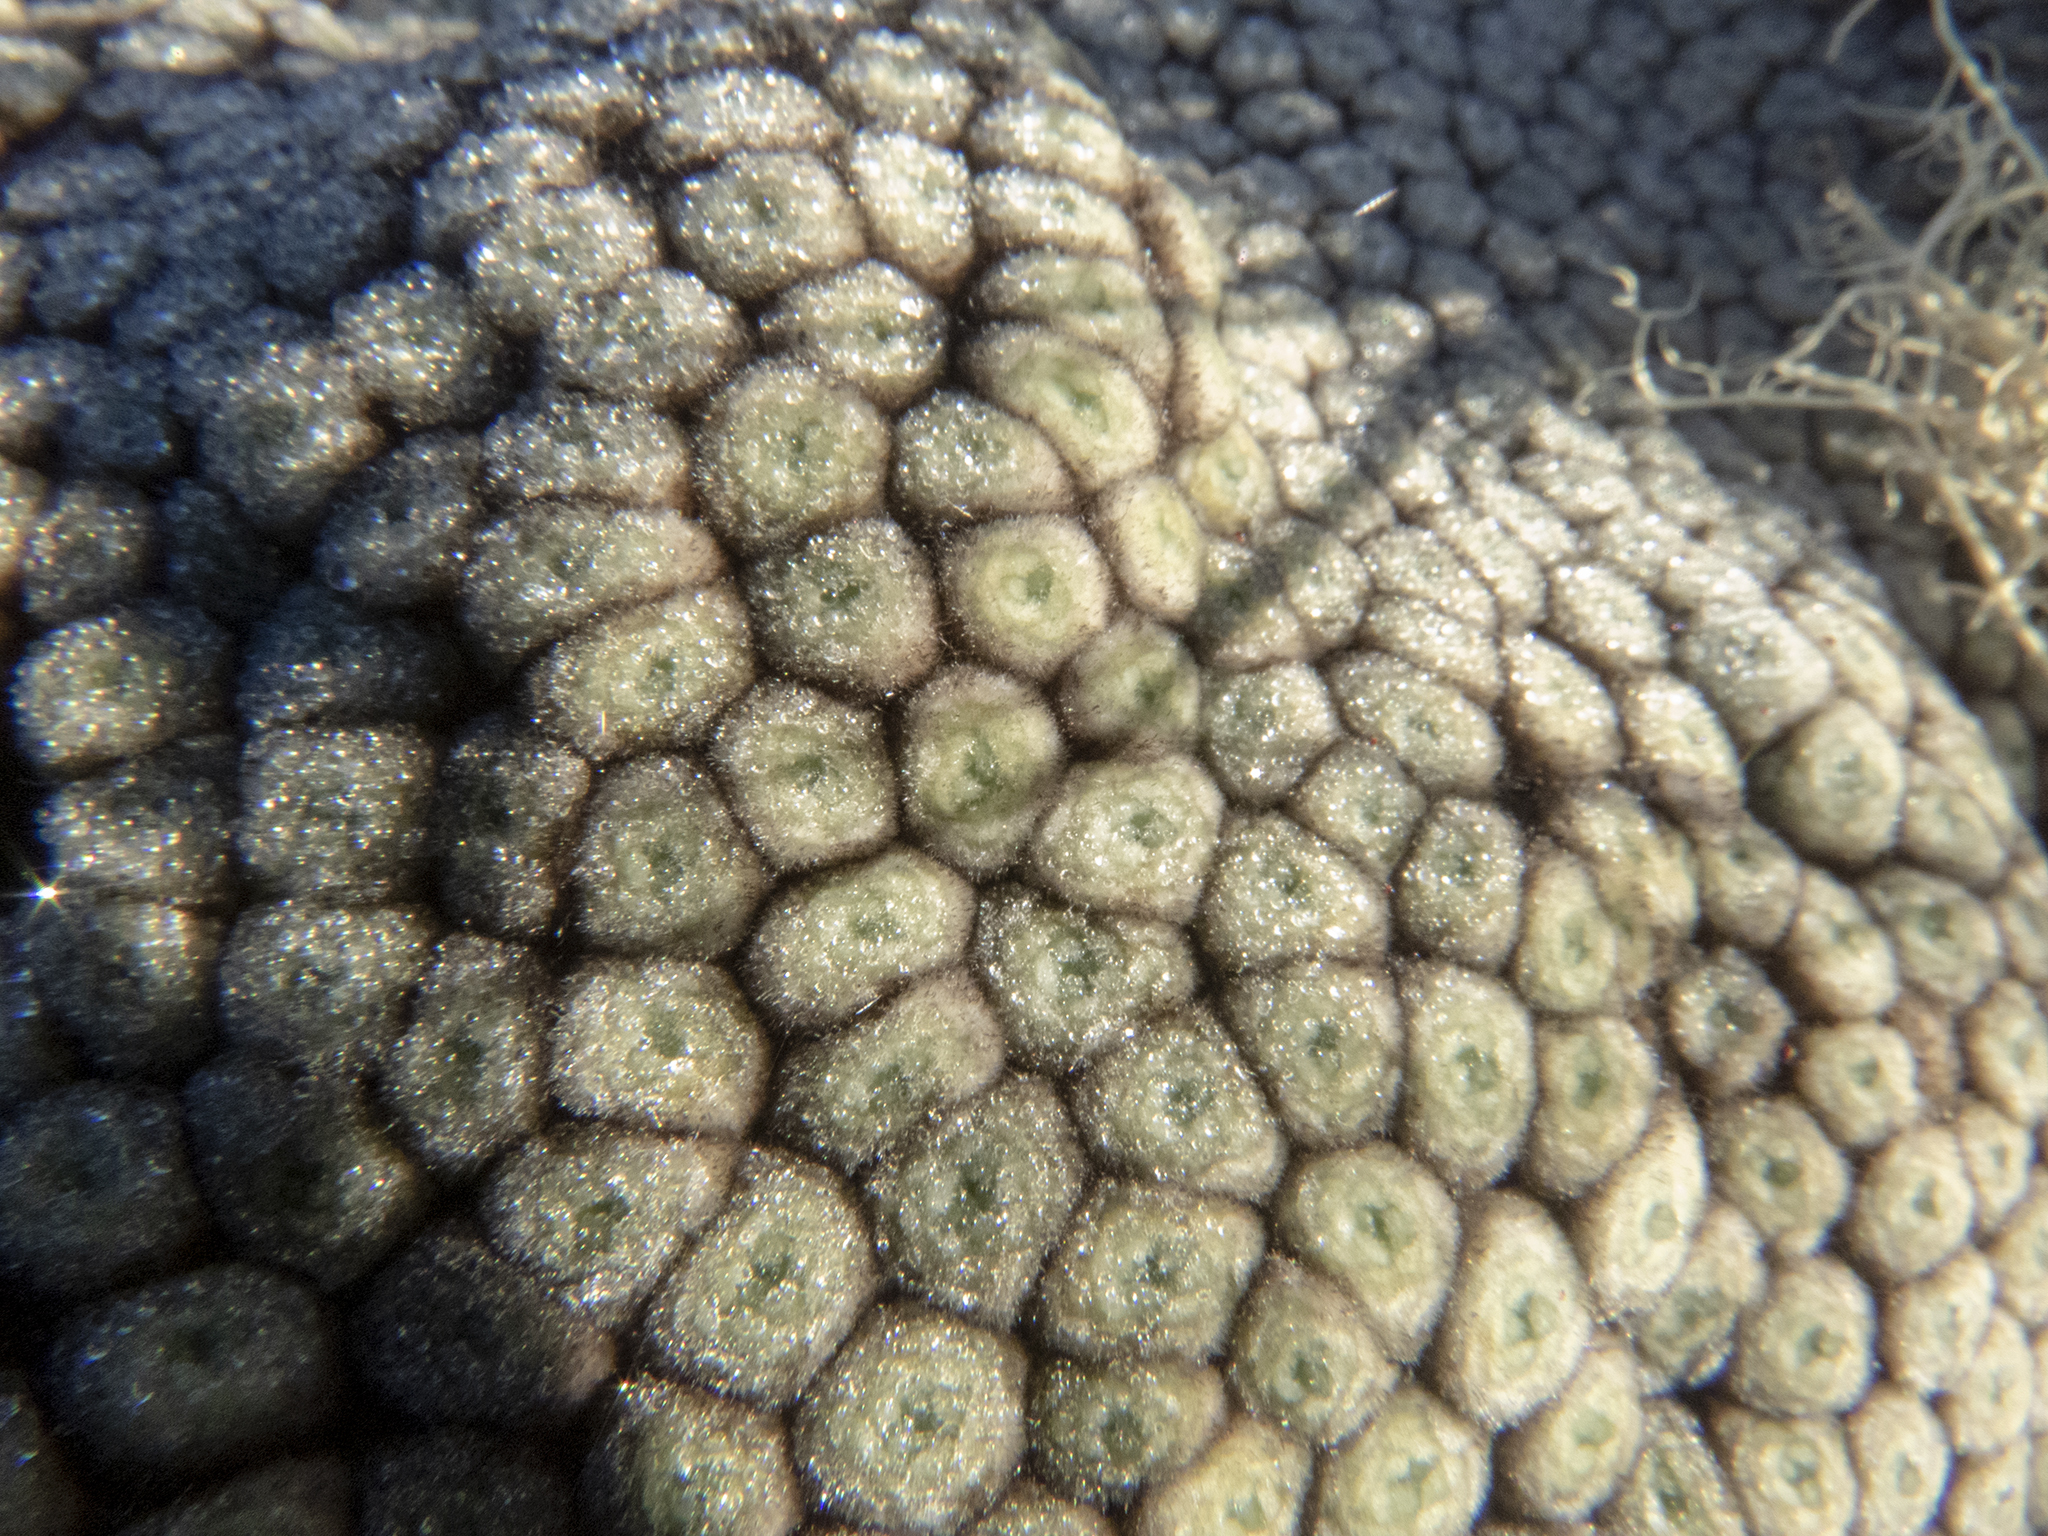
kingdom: Plantae
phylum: Tracheophyta
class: Magnoliopsida
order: Asterales
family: Asteraceae
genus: Raoulia
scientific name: Raoulia eximia
